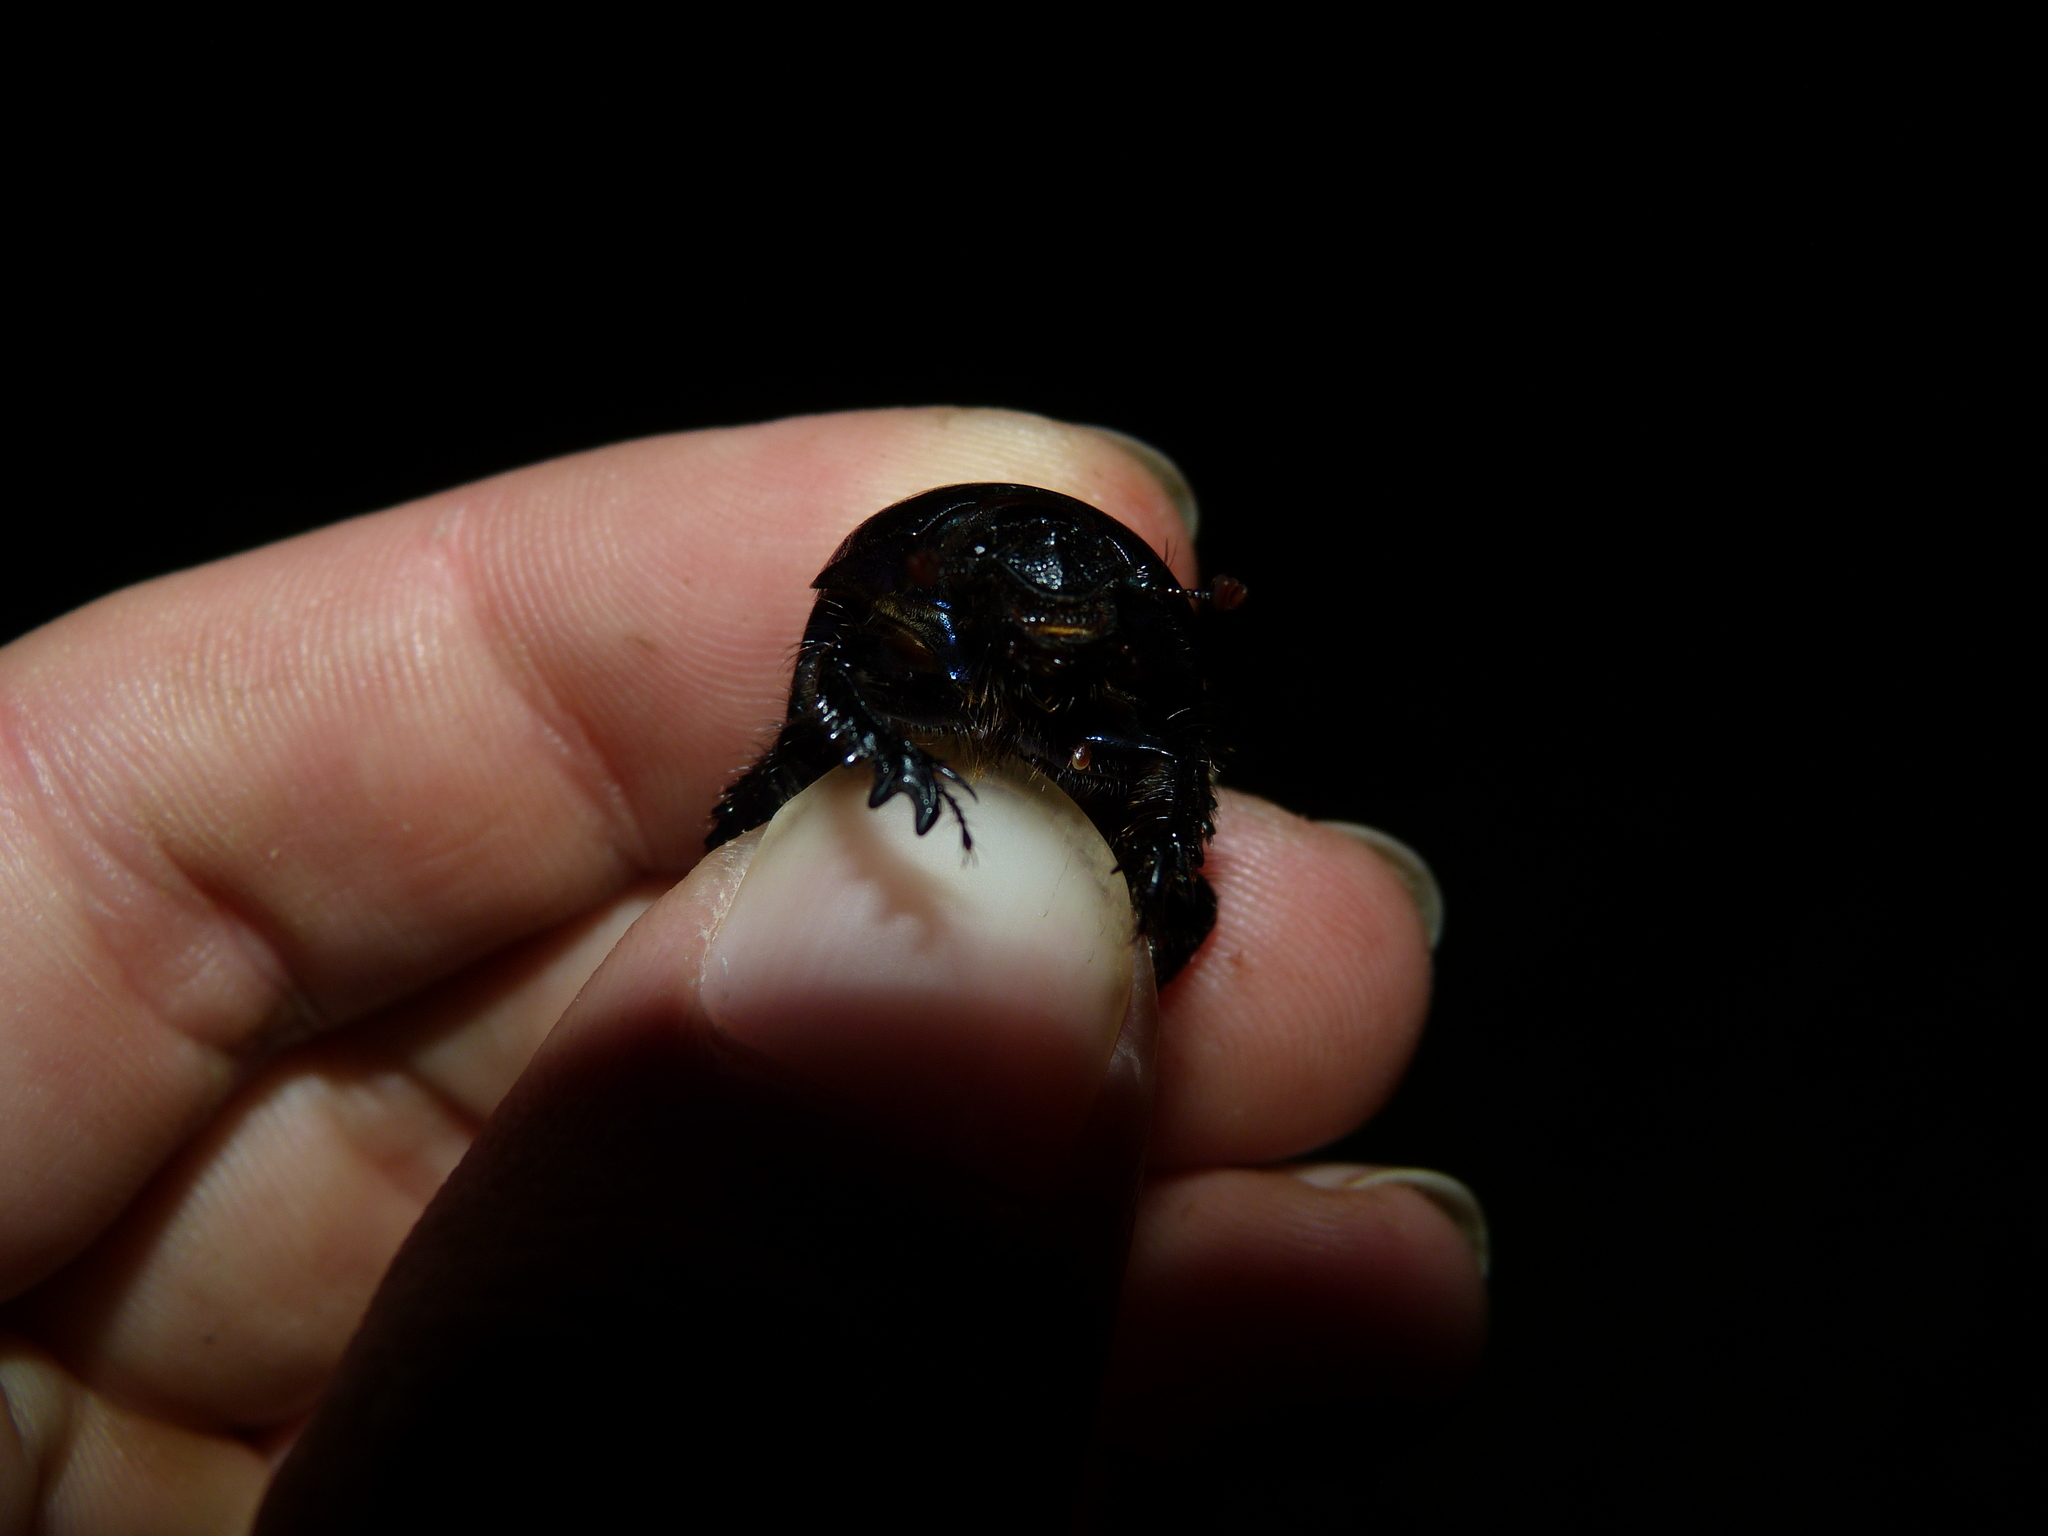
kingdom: Animalia
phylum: Arthropoda
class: Insecta
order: Coleoptera
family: Geotrupidae
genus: Anoplotrupes
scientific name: Anoplotrupes stercorosus
